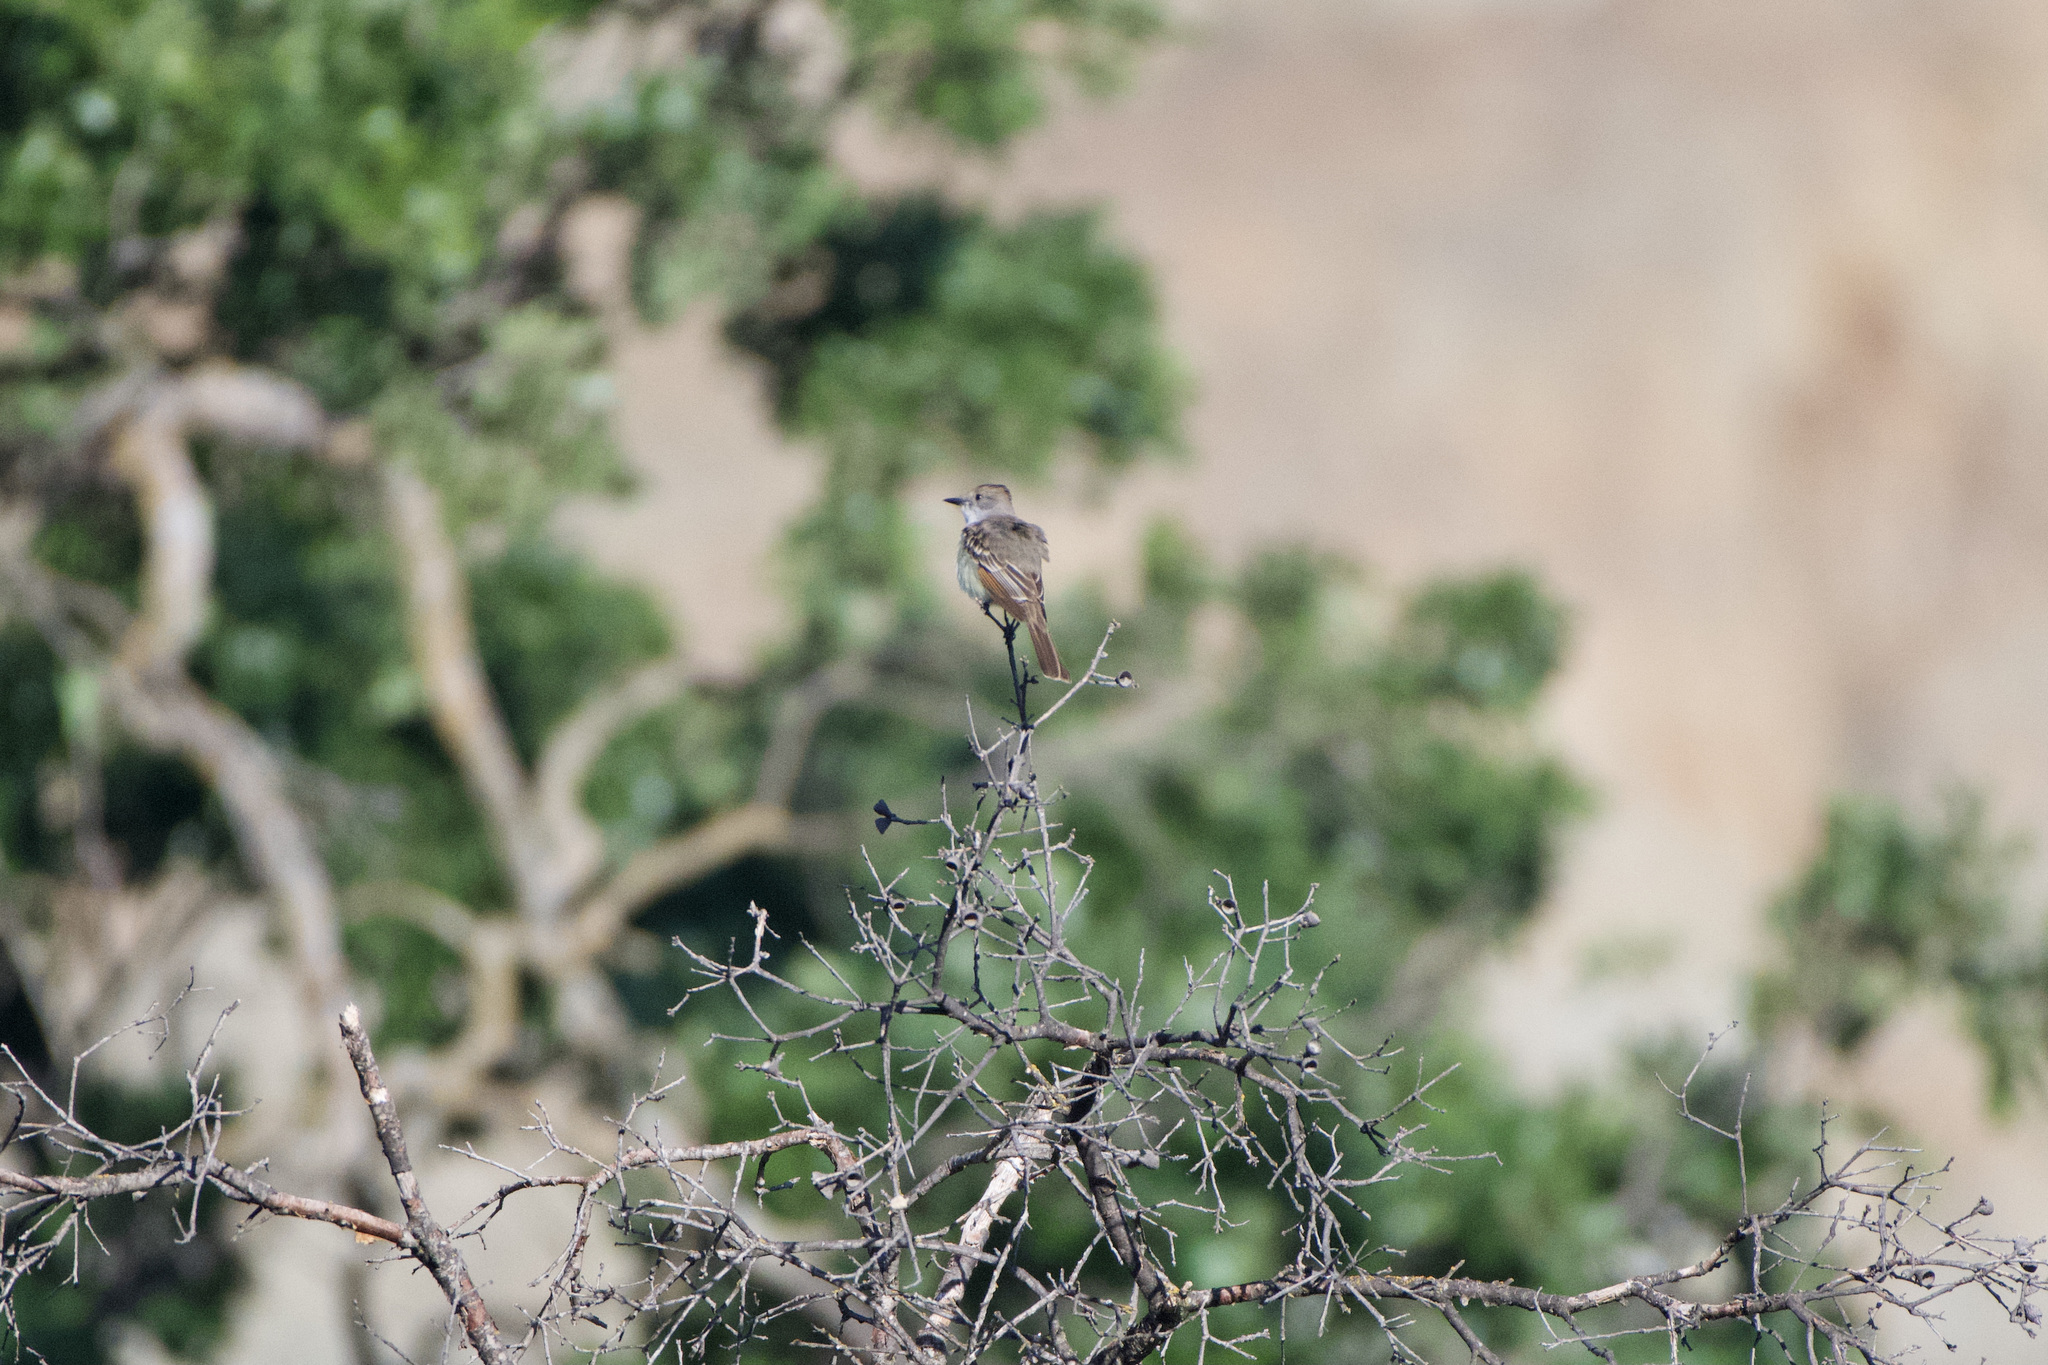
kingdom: Animalia
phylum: Chordata
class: Aves
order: Passeriformes
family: Tyrannidae
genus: Myiarchus
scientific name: Myiarchus cinerascens
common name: Ash-throated flycatcher
